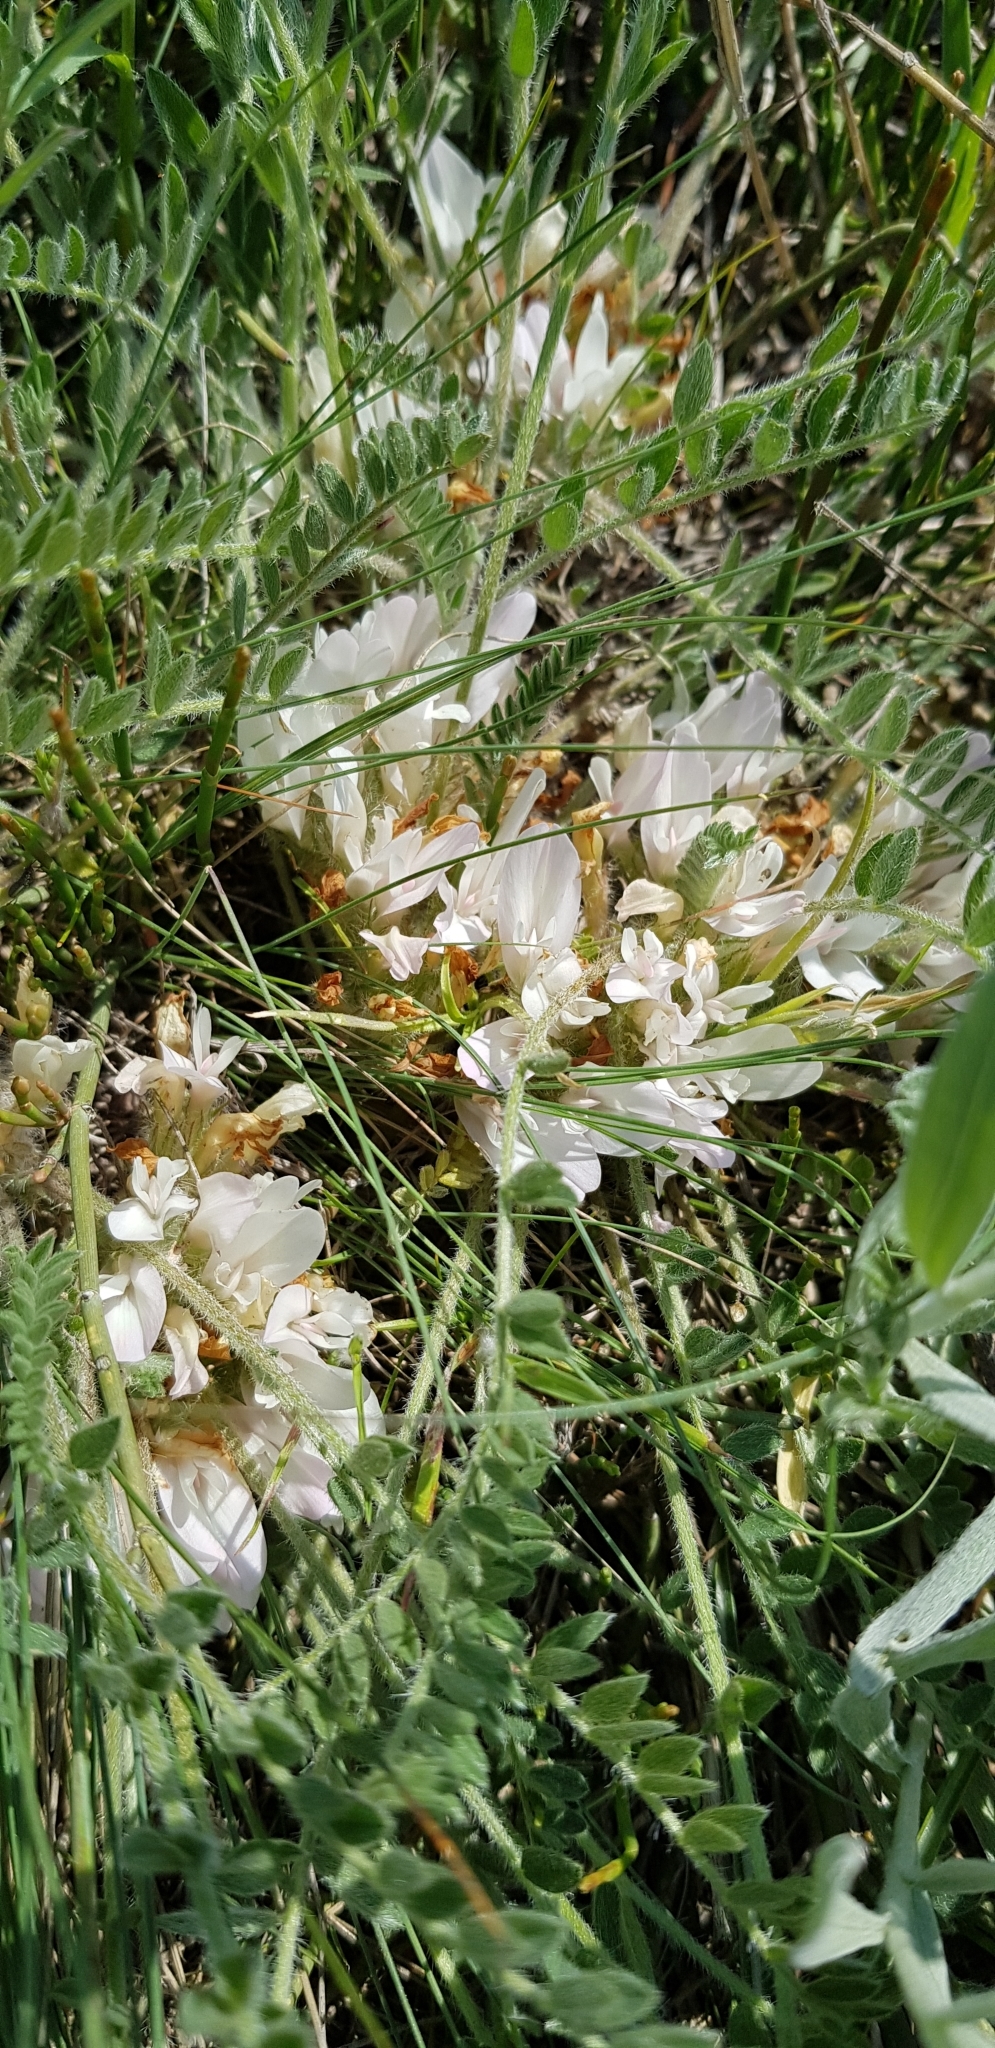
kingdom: Plantae
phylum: Tracheophyta
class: Magnoliopsida
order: Fabales
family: Fabaceae
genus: Astragalus
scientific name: Astragalus dolichophyllus
